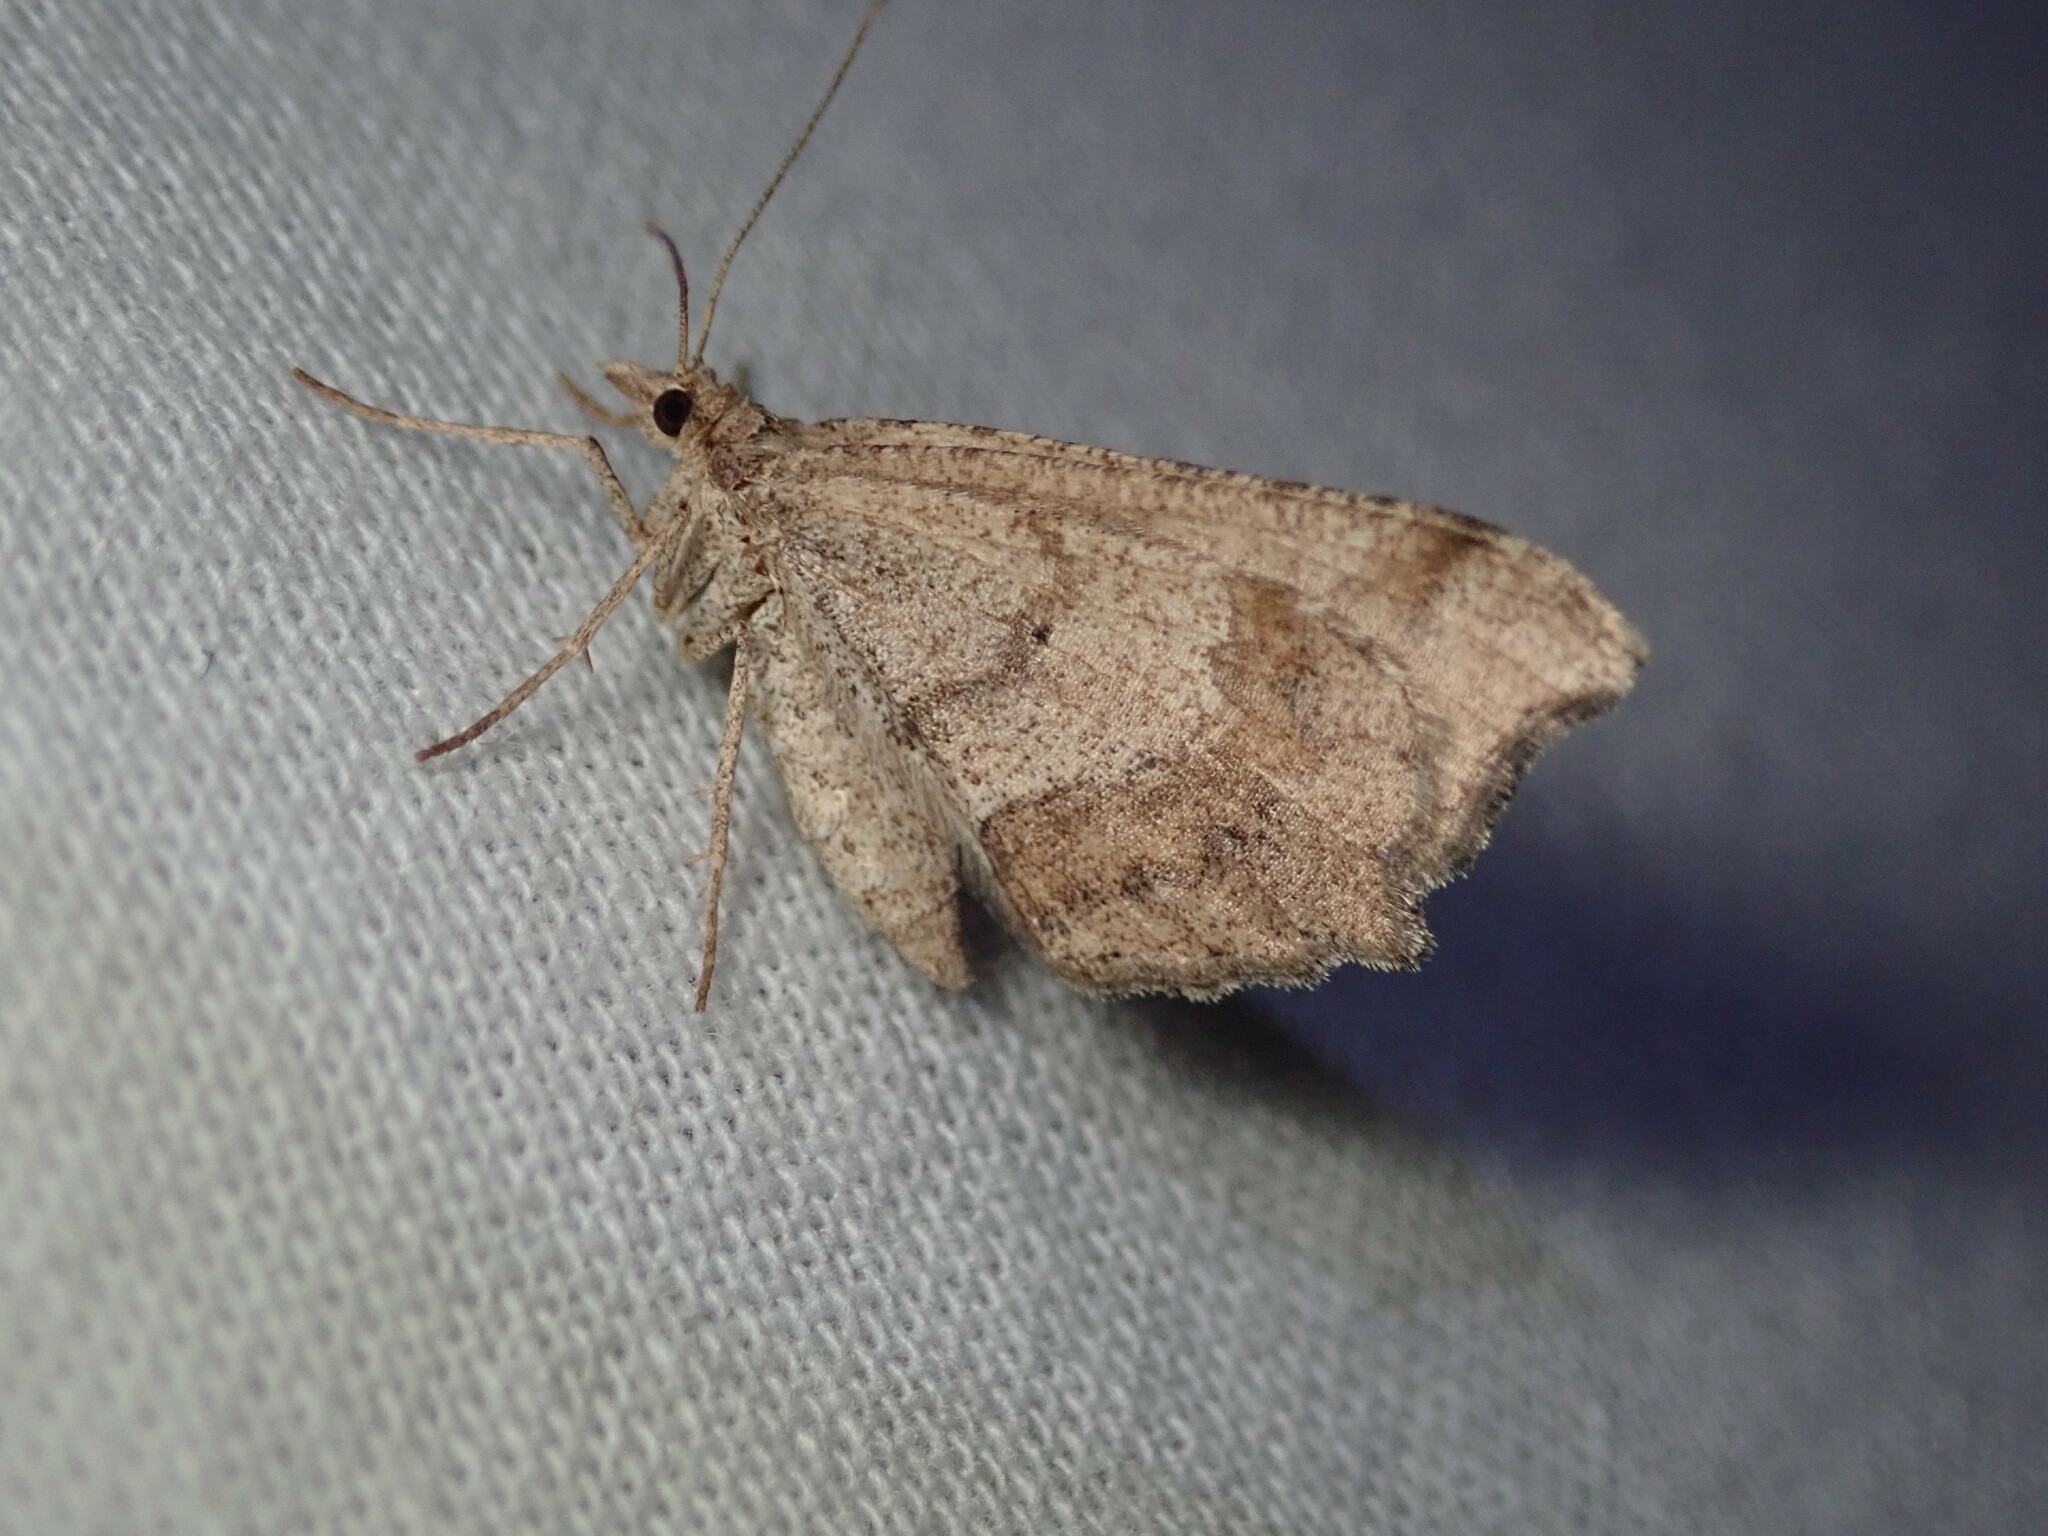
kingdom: Animalia
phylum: Arthropoda
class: Insecta
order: Lepidoptera
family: Geometridae
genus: Macaria
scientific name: Macaria marcescaria
